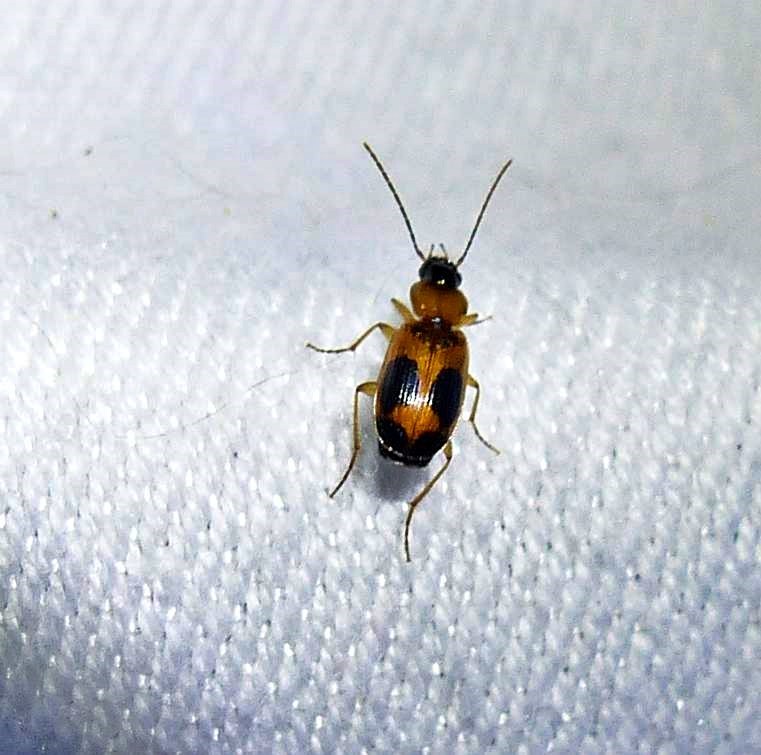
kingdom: Animalia
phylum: Arthropoda
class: Insecta
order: Coleoptera
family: Carabidae
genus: Badister
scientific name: Badister neopulchellus
